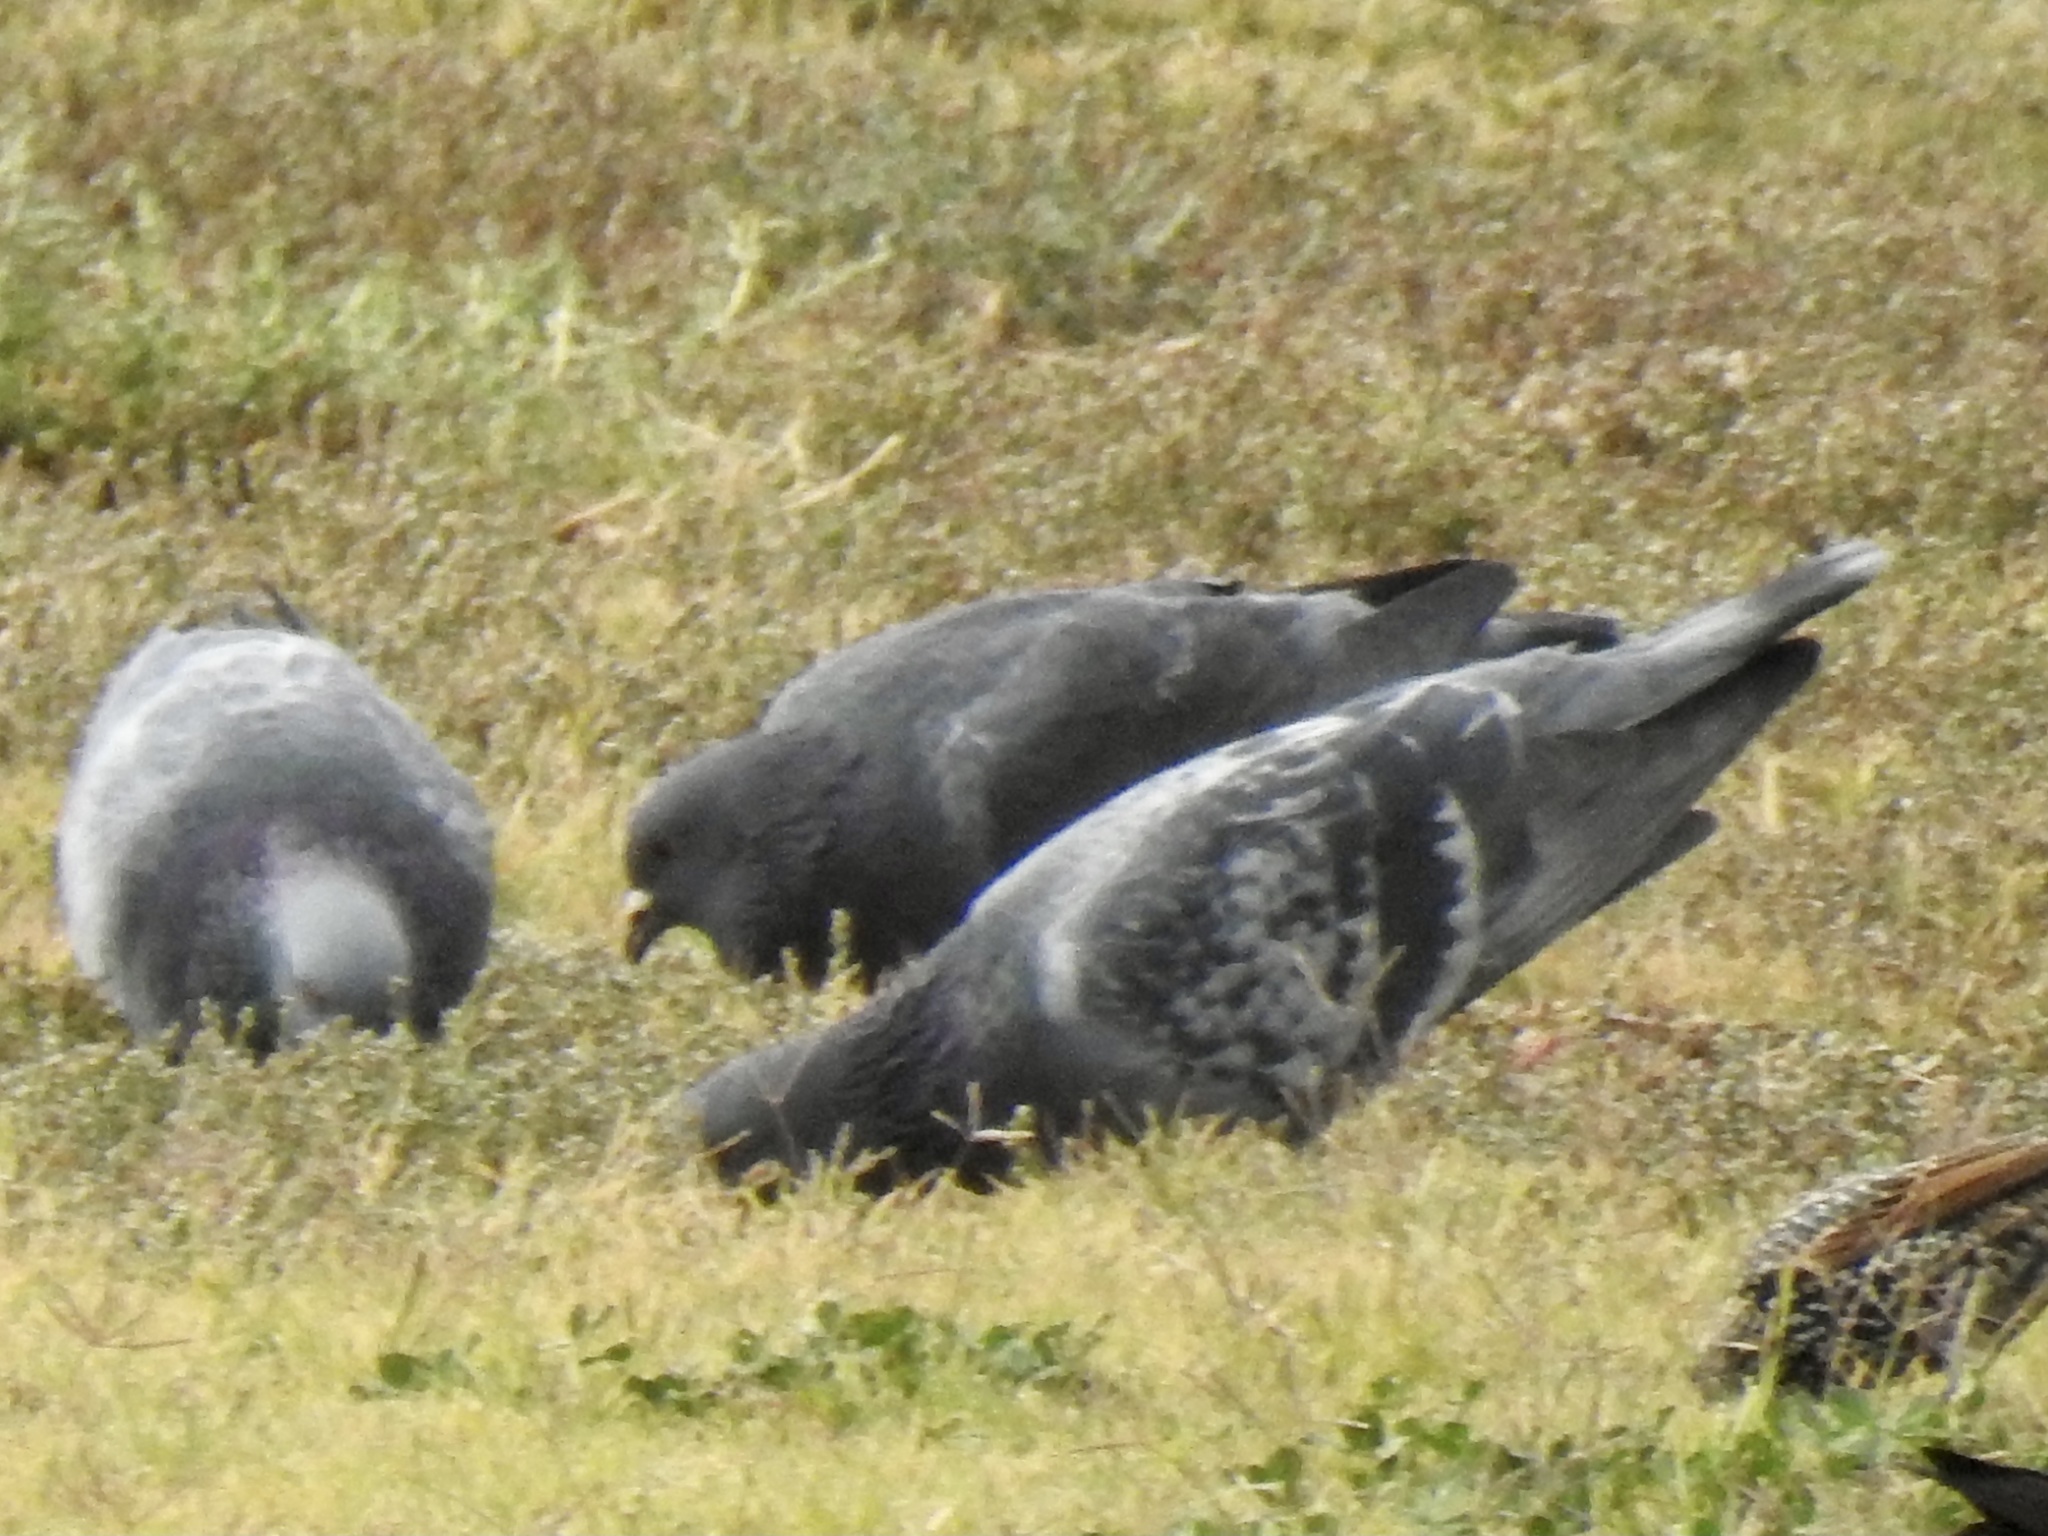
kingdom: Animalia
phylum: Chordata
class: Aves
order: Columbiformes
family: Columbidae
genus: Columba
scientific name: Columba livia
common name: Rock pigeon
